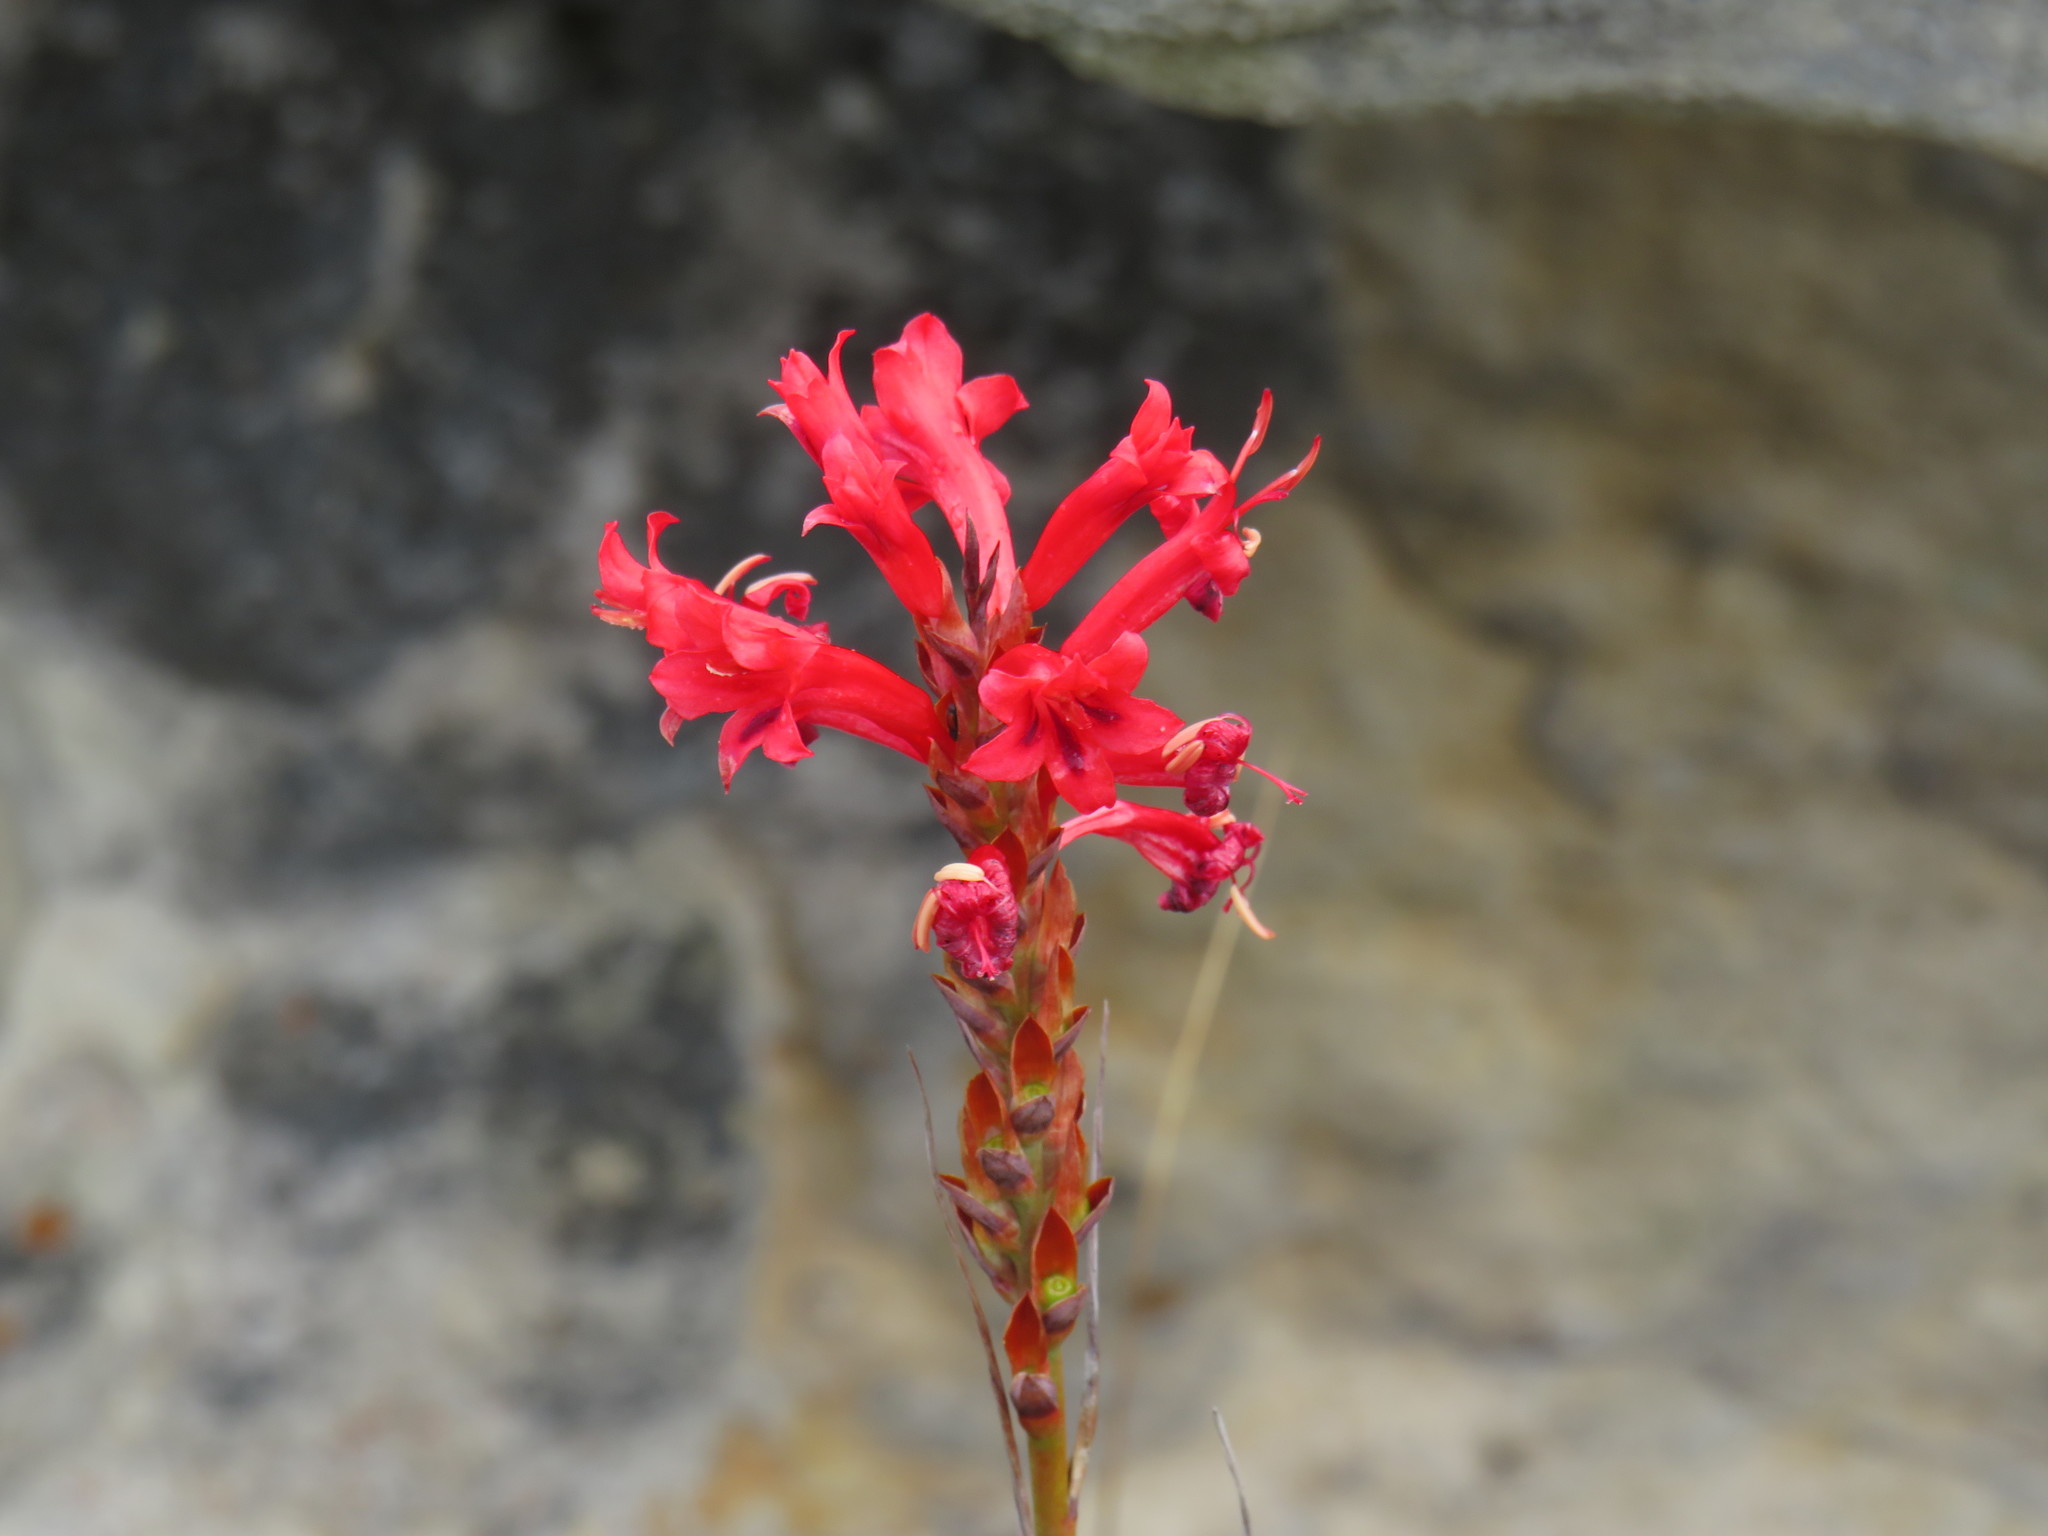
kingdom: Plantae
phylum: Tracheophyta
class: Liliopsida
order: Asparagales
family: Iridaceae
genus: Tritoniopsis
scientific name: Tritoniopsis triticea
